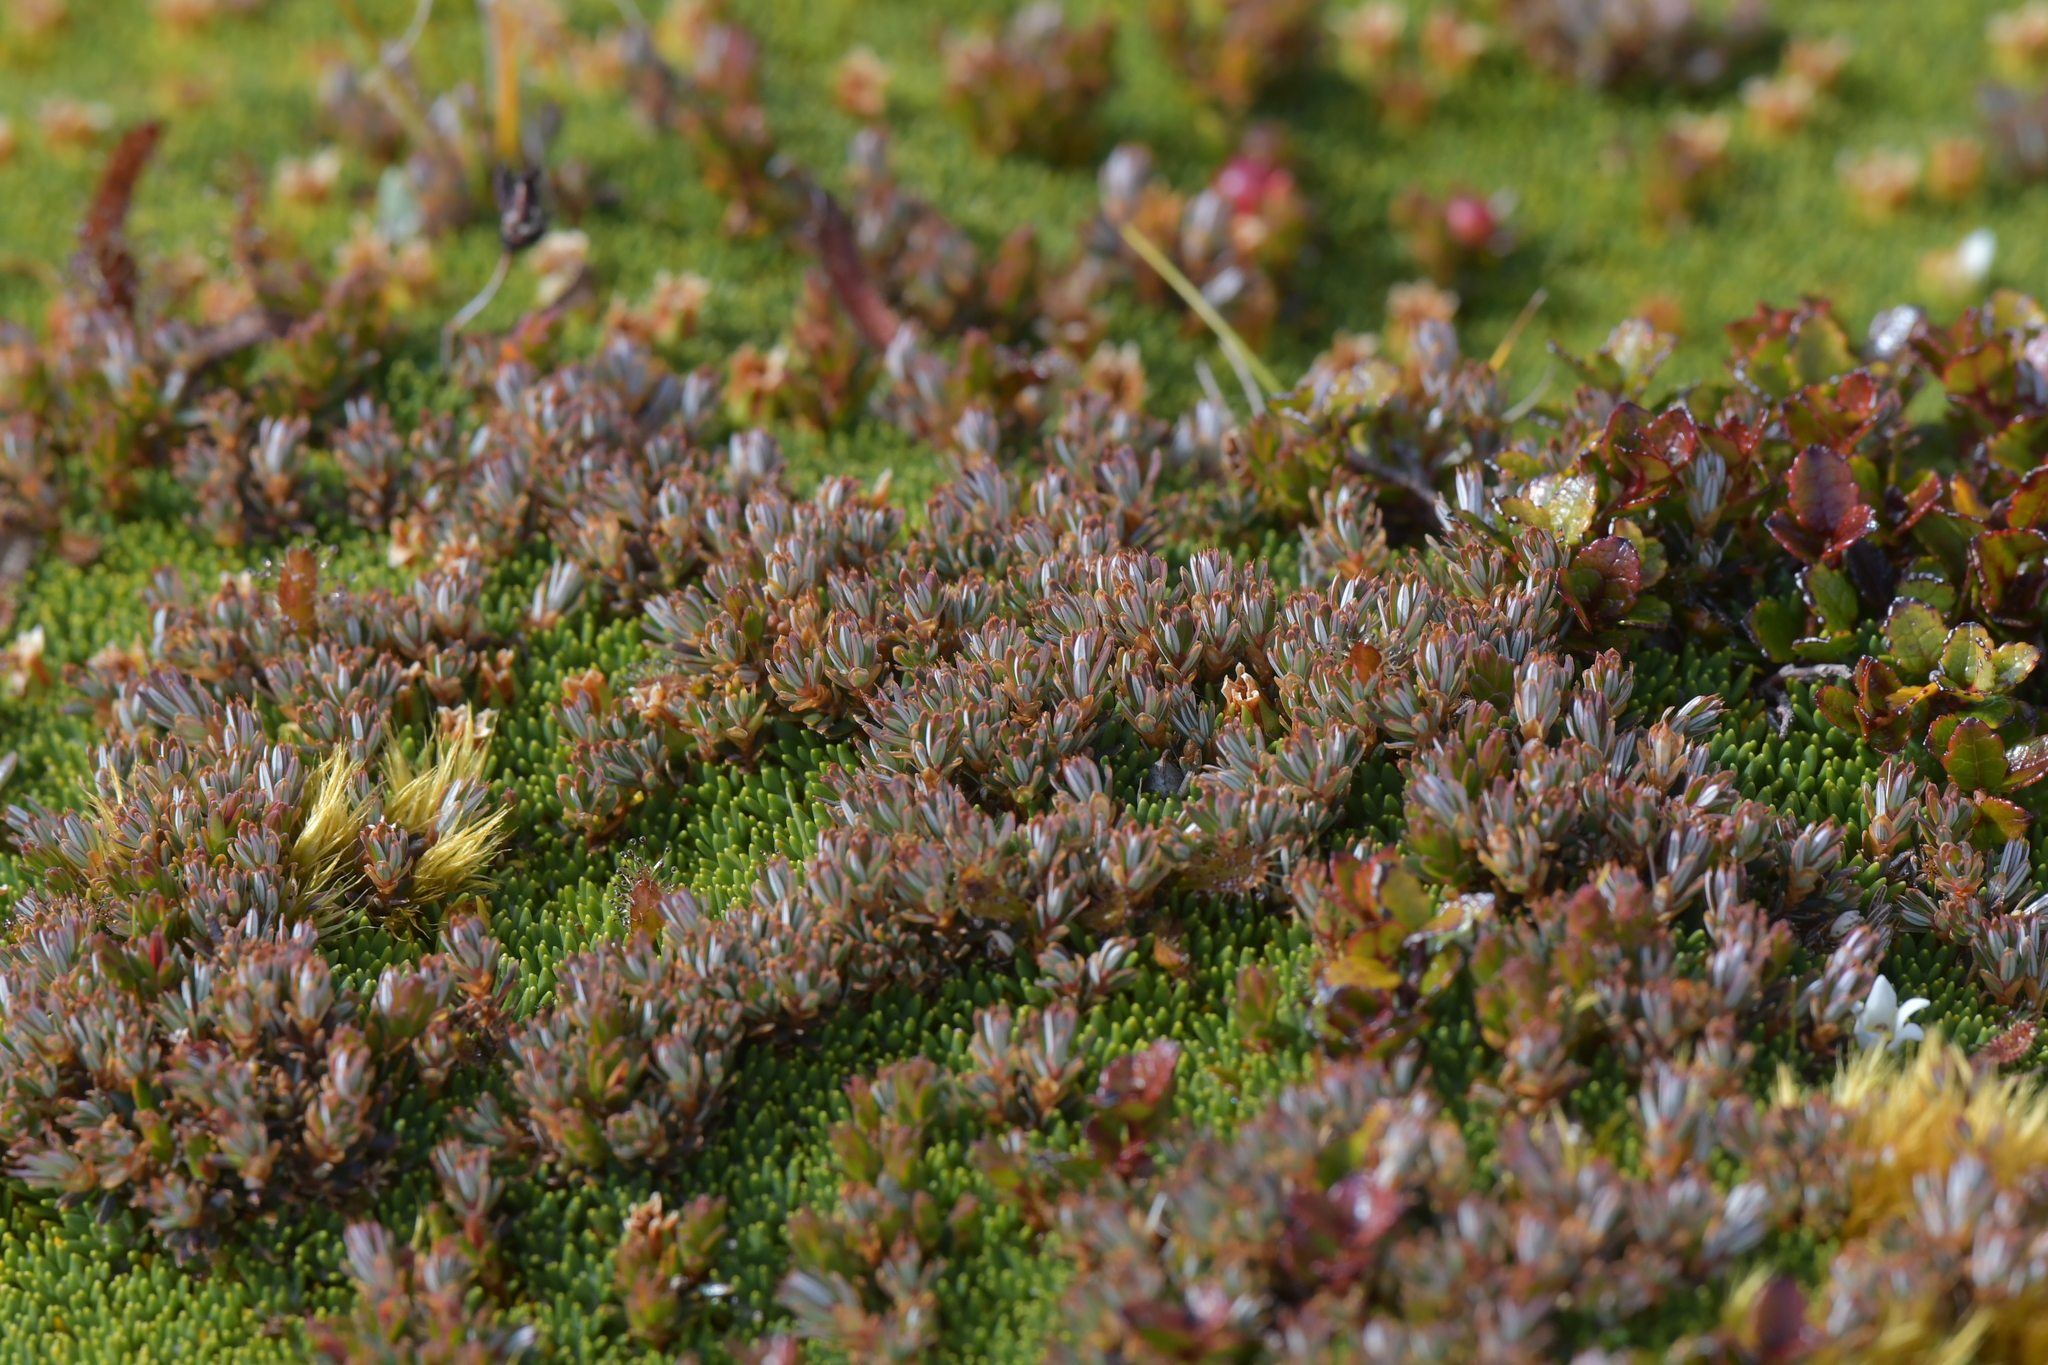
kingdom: Plantae
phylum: Tracheophyta
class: Magnoliopsida
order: Ericales
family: Ericaceae
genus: Montitega
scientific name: Montitega dealbata
